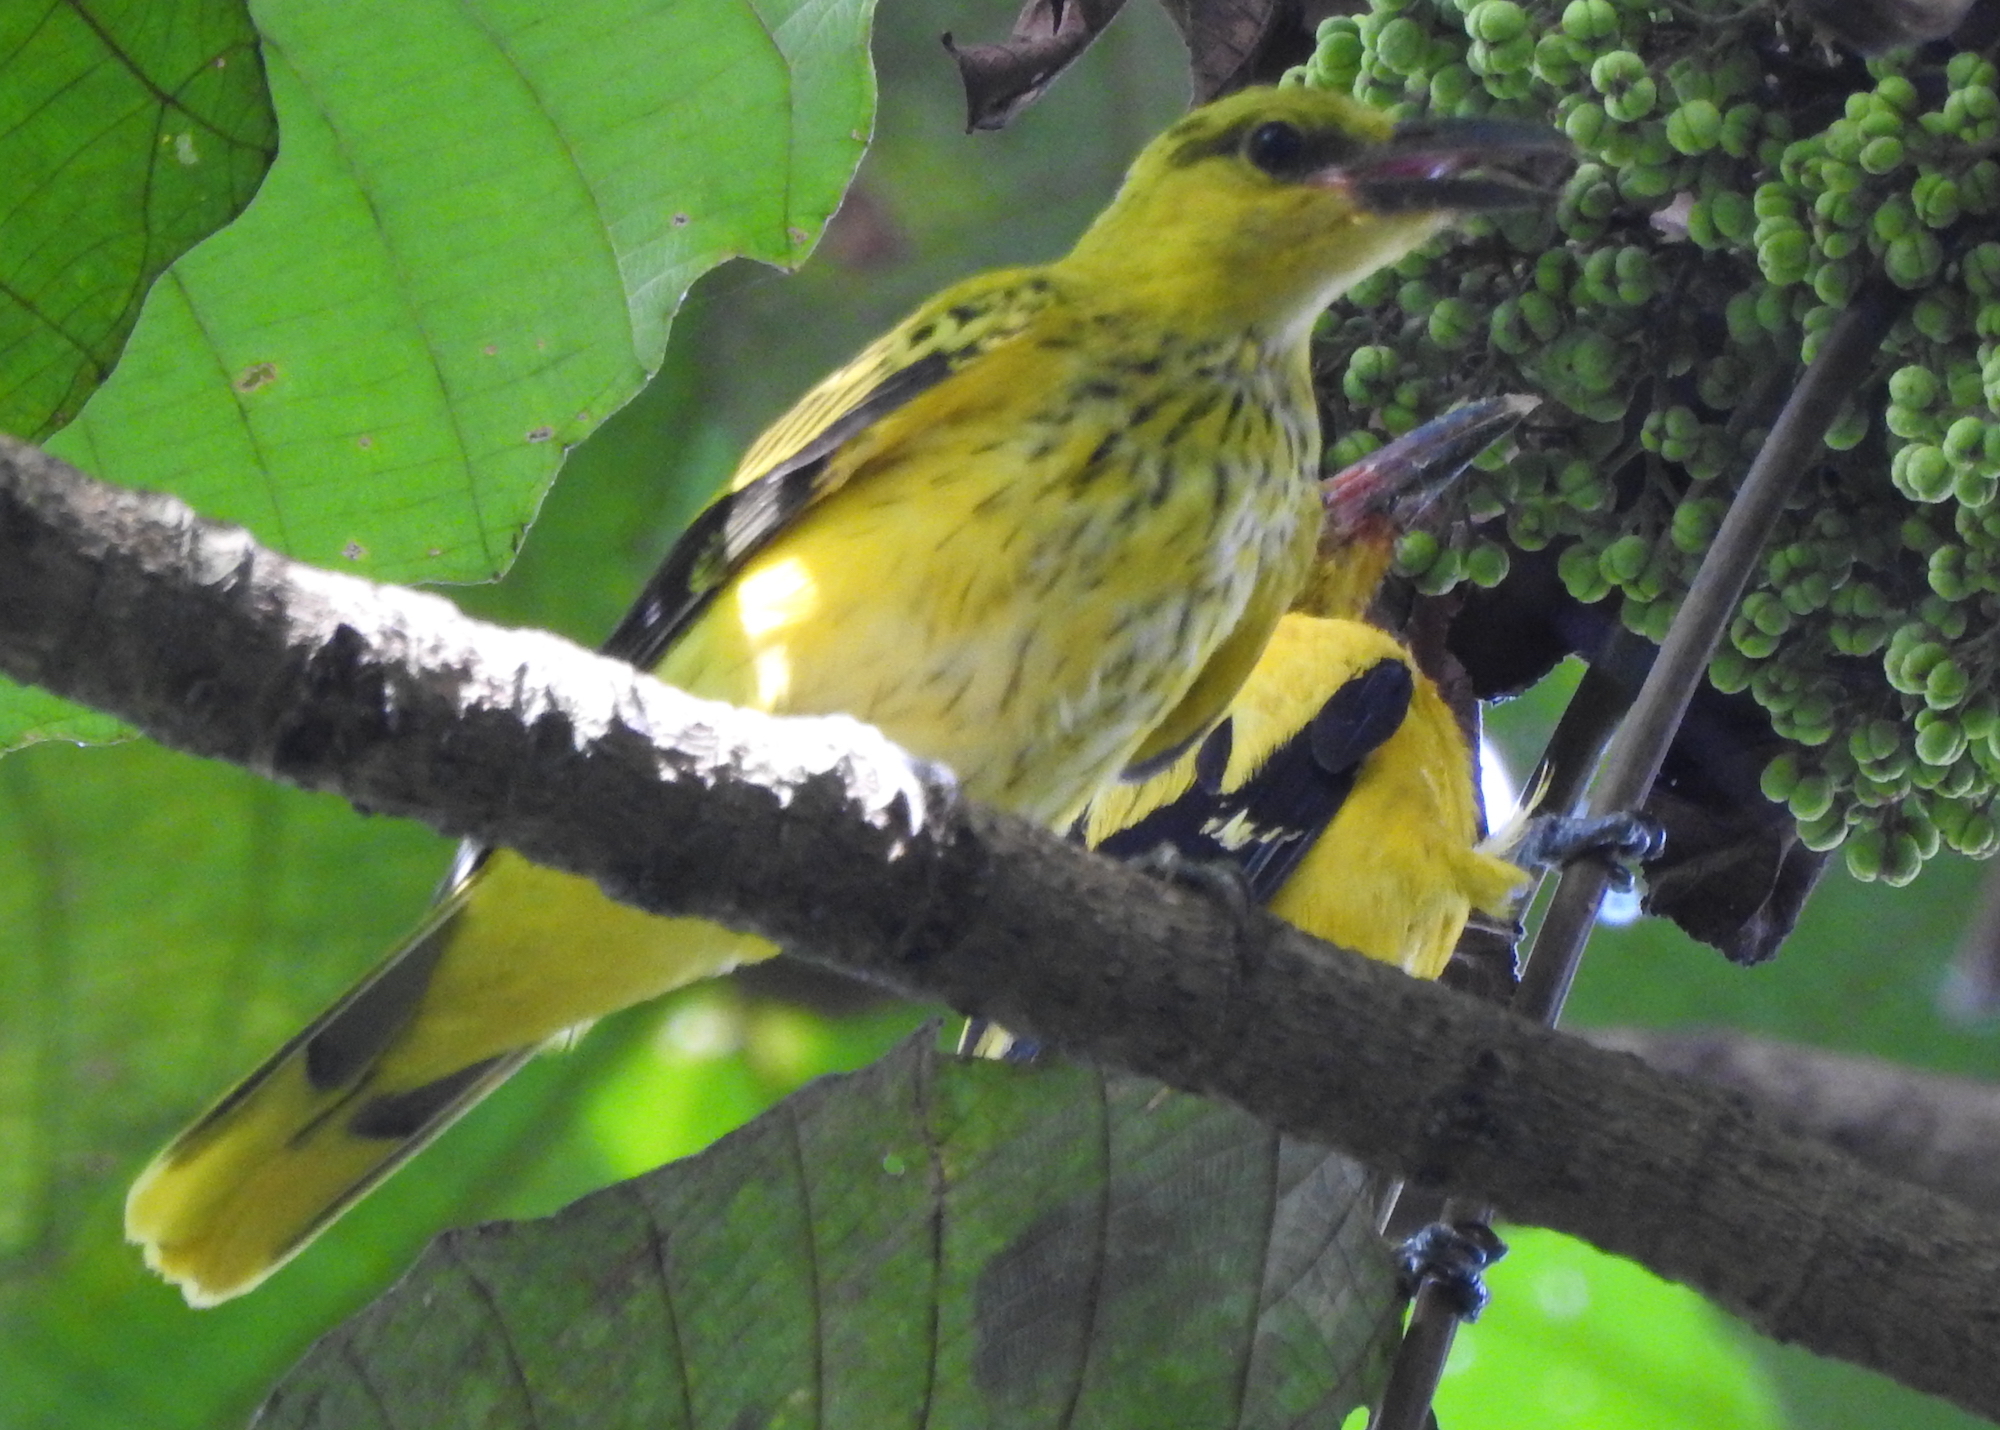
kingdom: Animalia
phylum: Chordata
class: Aves
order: Passeriformes
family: Oriolidae
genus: Oriolus
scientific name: Oriolus chinensis
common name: Black-naped oriole
